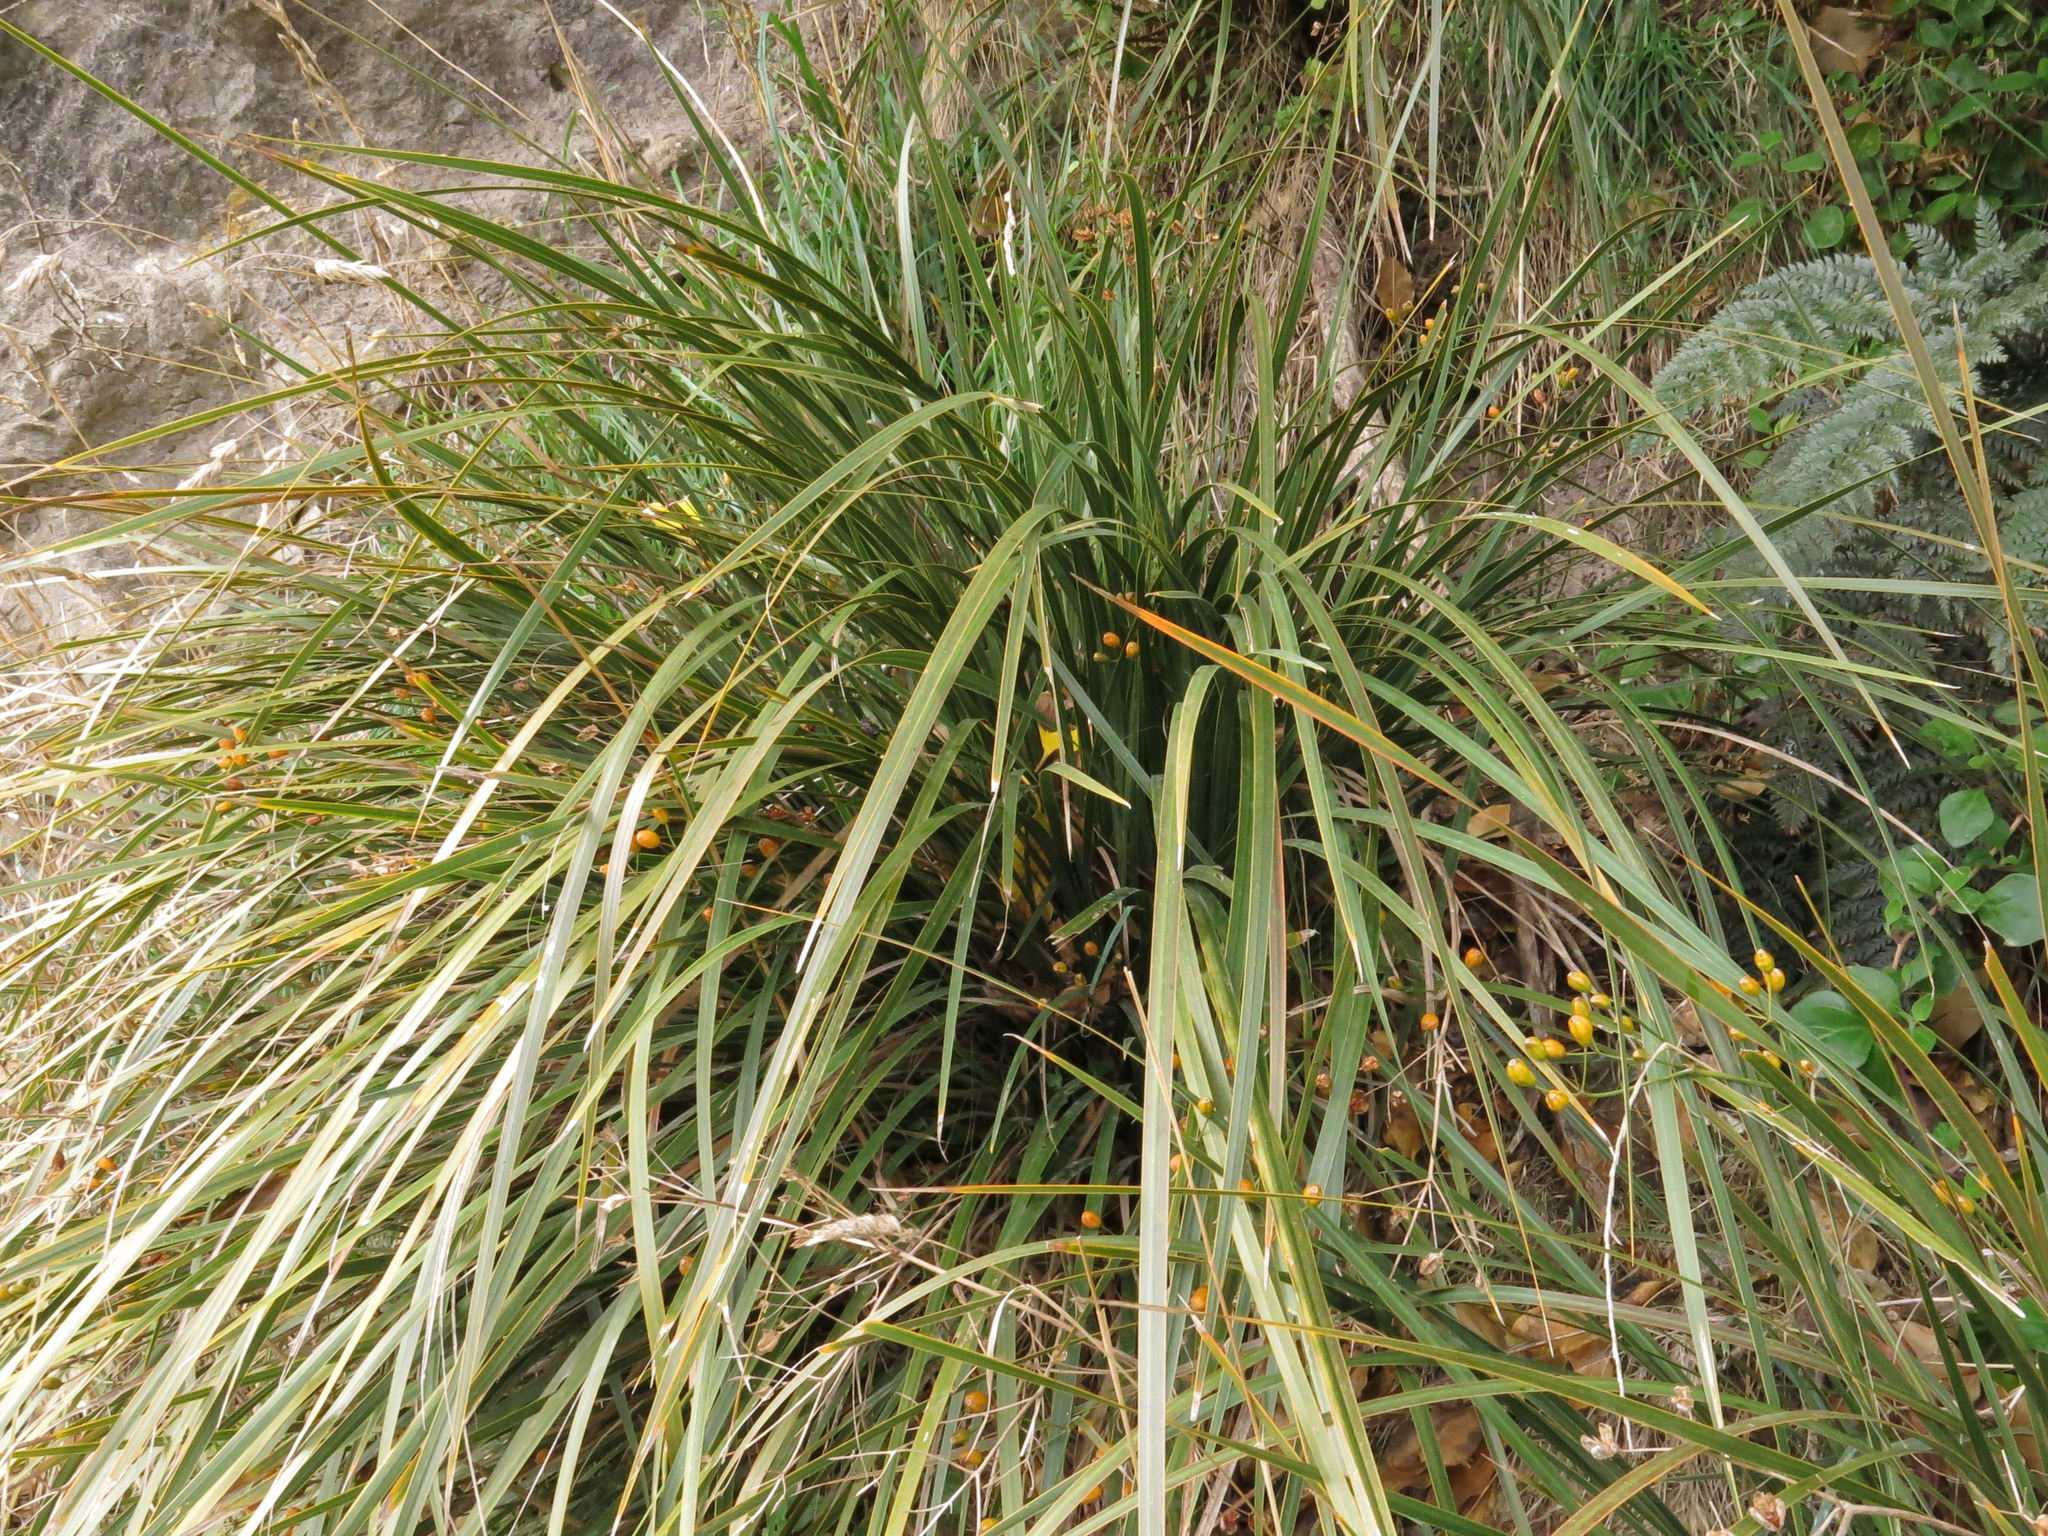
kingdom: Plantae
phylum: Tracheophyta
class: Liliopsida
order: Asparagales
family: Iridaceae
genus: Libertia
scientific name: Libertia ixioides
